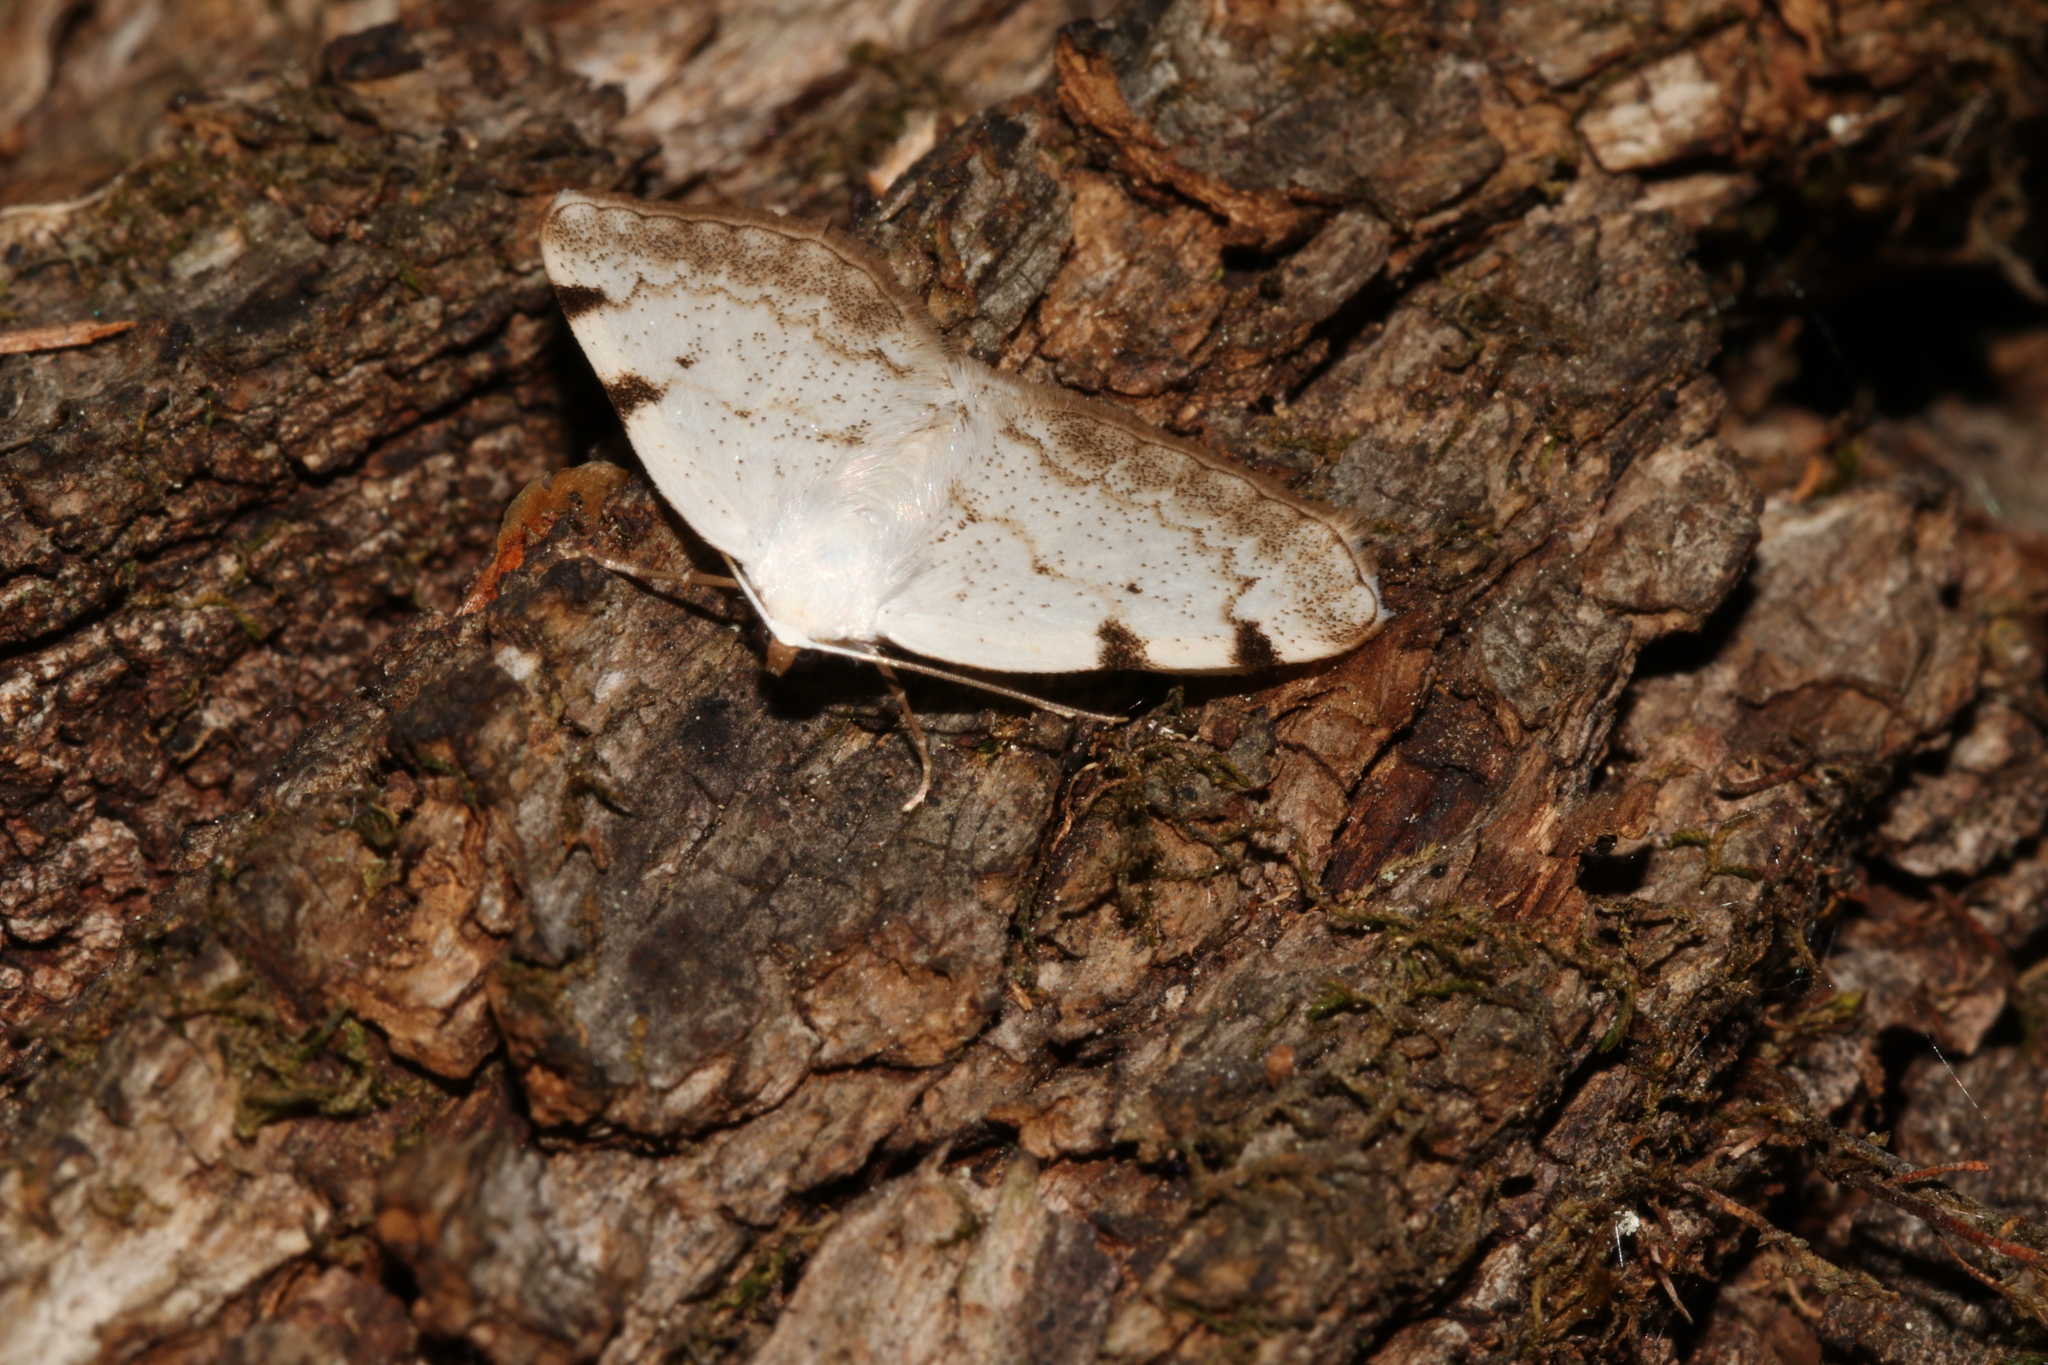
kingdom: Animalia
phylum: Arthropoda
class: Insecta
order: Lepidoptera
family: Geometridae
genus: Lomographa
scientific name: Lomographa bimaculata
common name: White-pinion spotted
